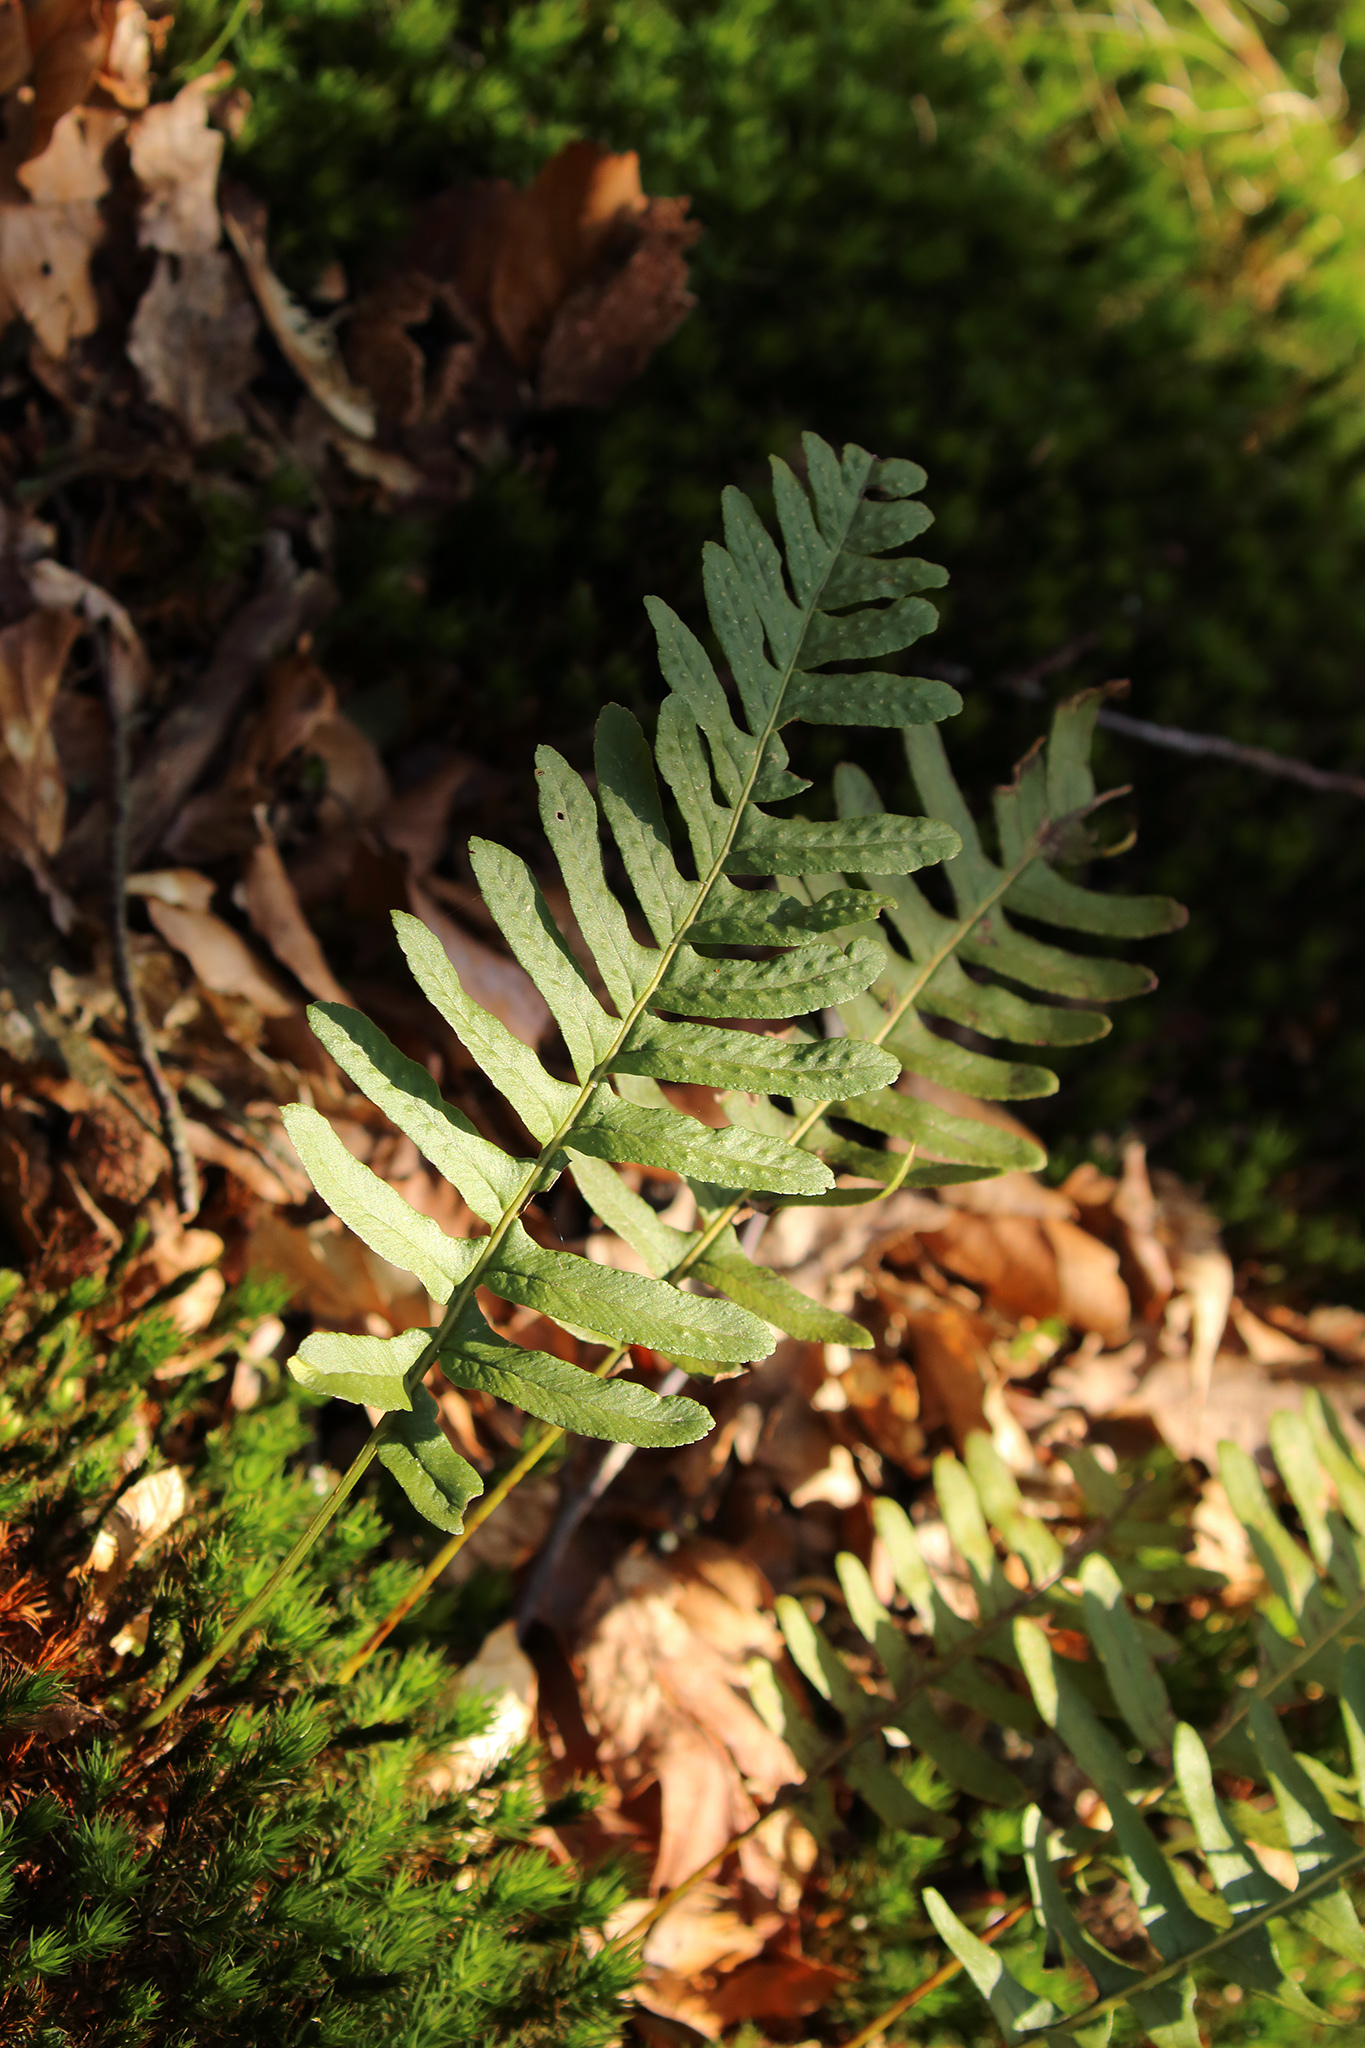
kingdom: Plantae
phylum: Tracheophyta
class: Polypodiopsida
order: Polypodiales
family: Polypodiaceae
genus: Polypodium
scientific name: Polypodium vulgare
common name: Common polypody
